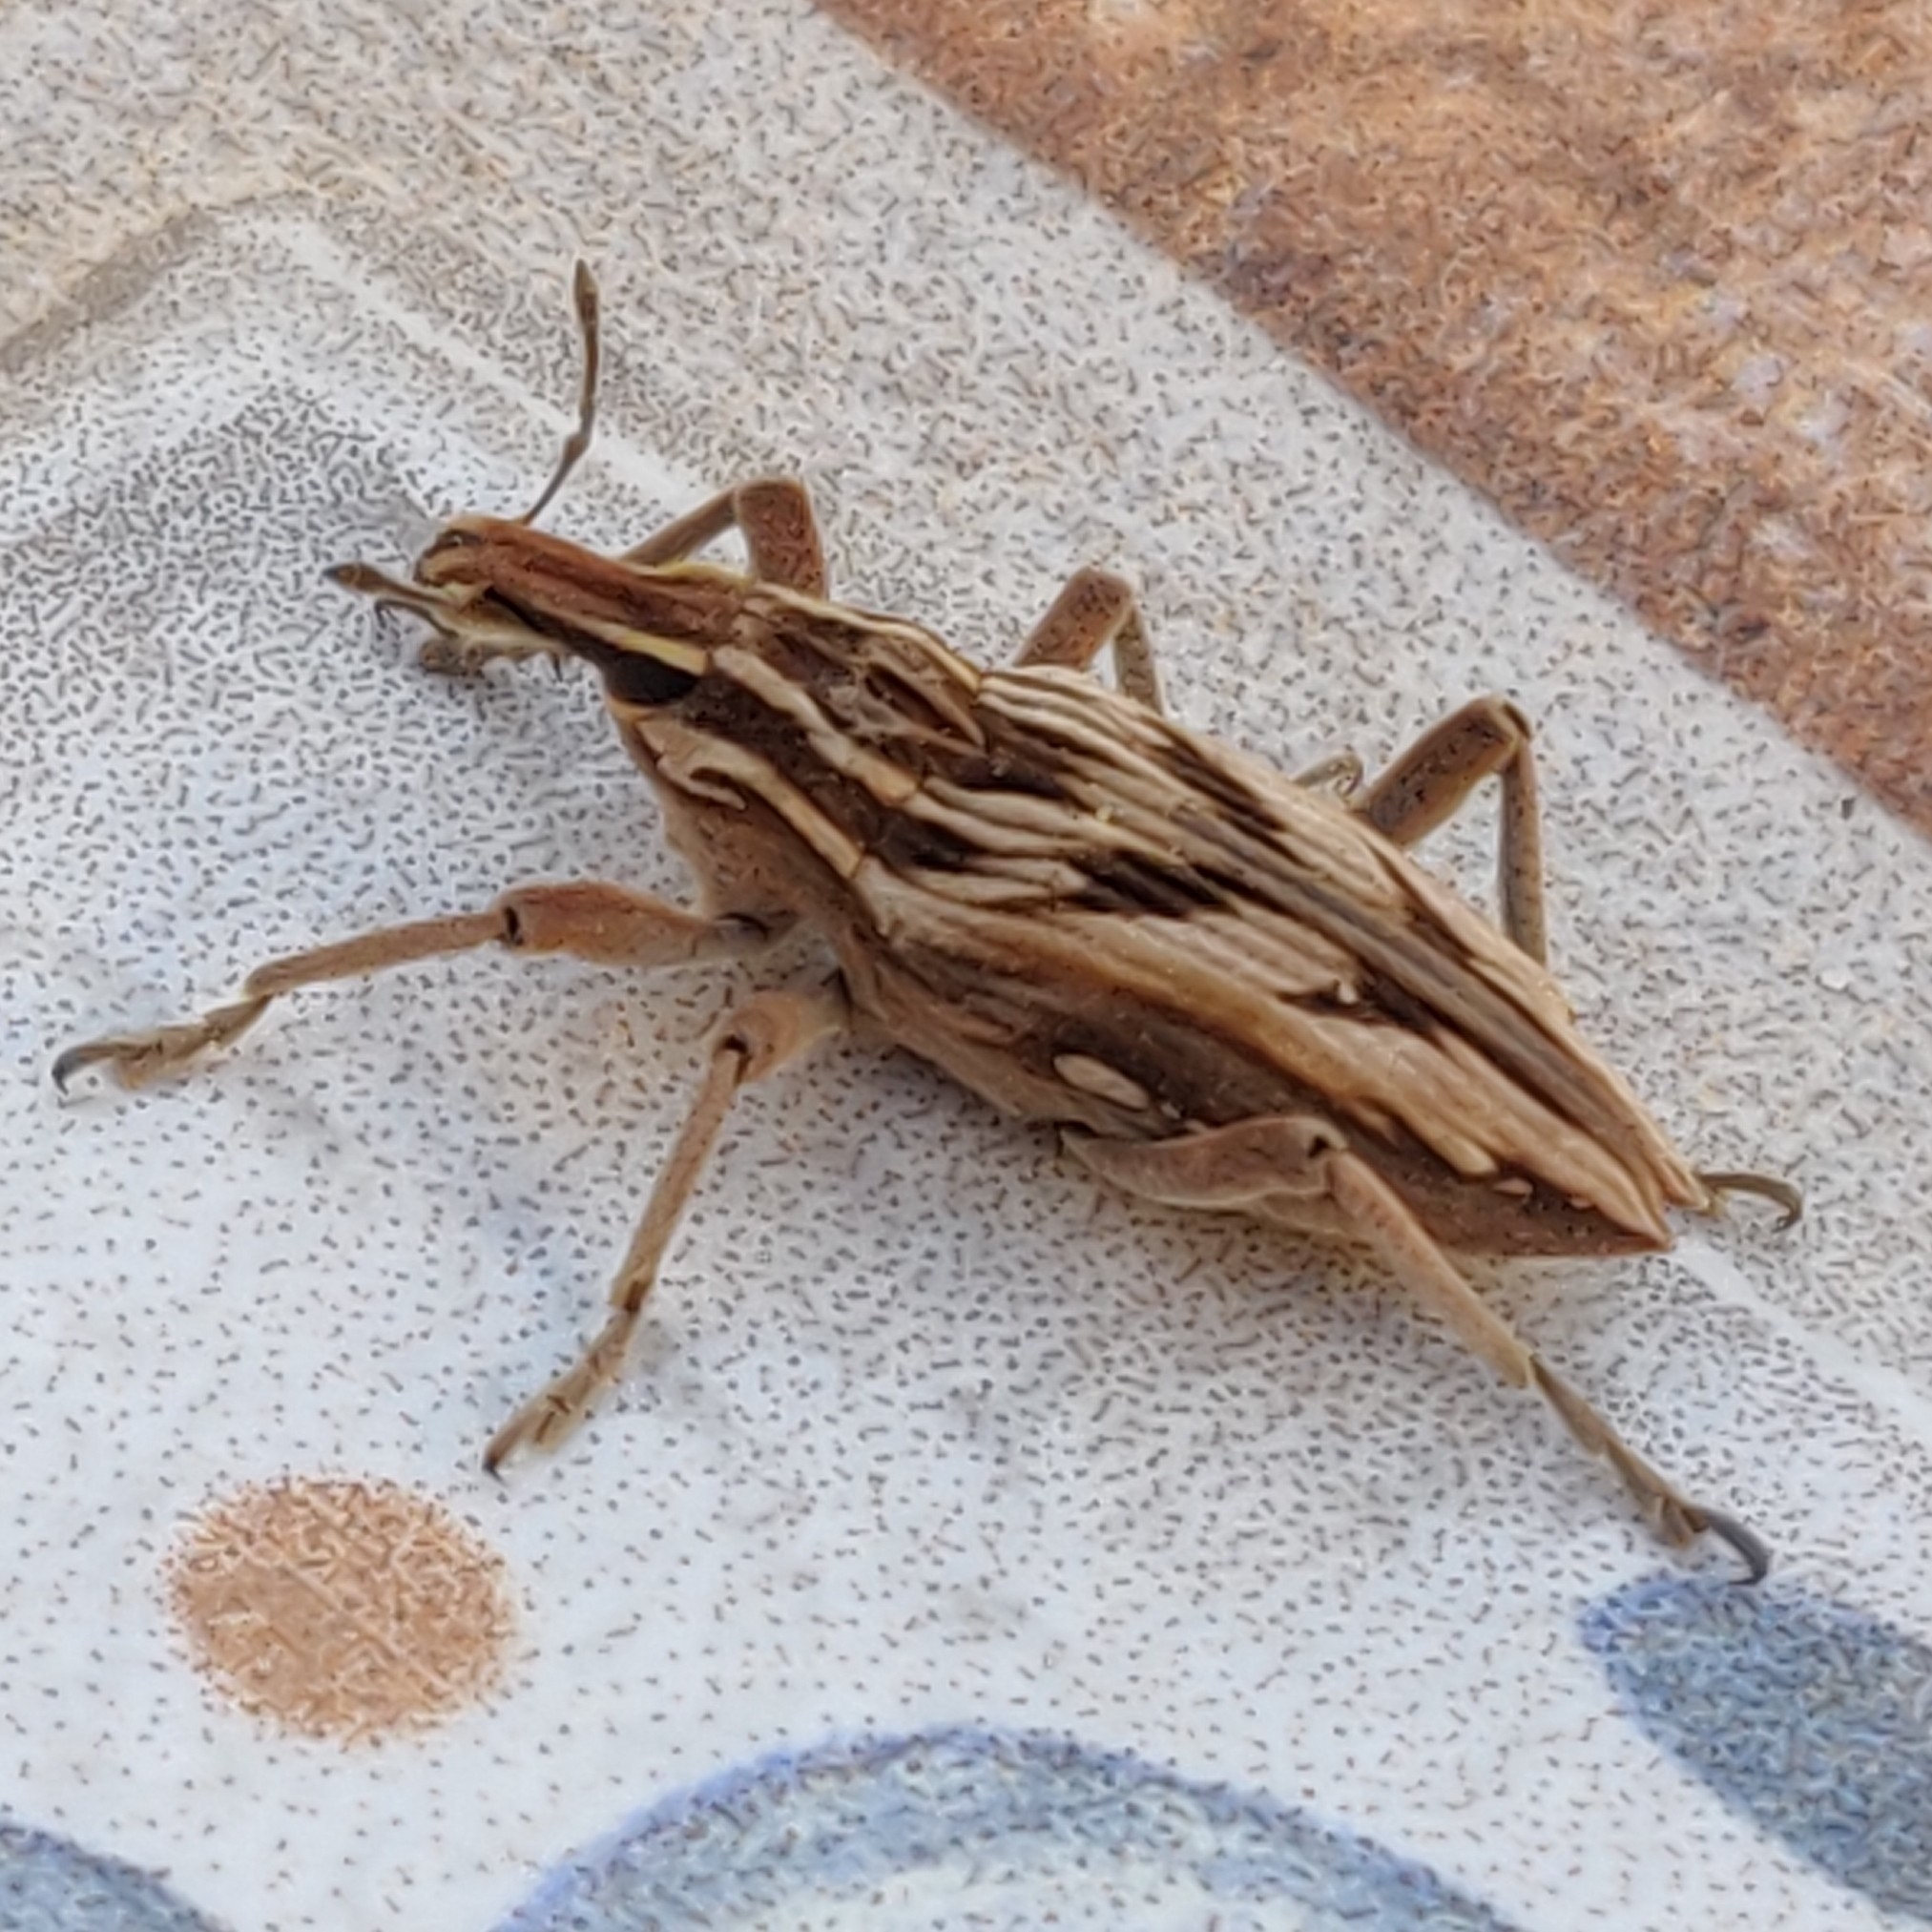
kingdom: Animalia
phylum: Arthropoda
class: Insecta
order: Coleoptera
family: Curculionidae
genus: Coniocleonus
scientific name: Coniocleonus nigrosuturatus
